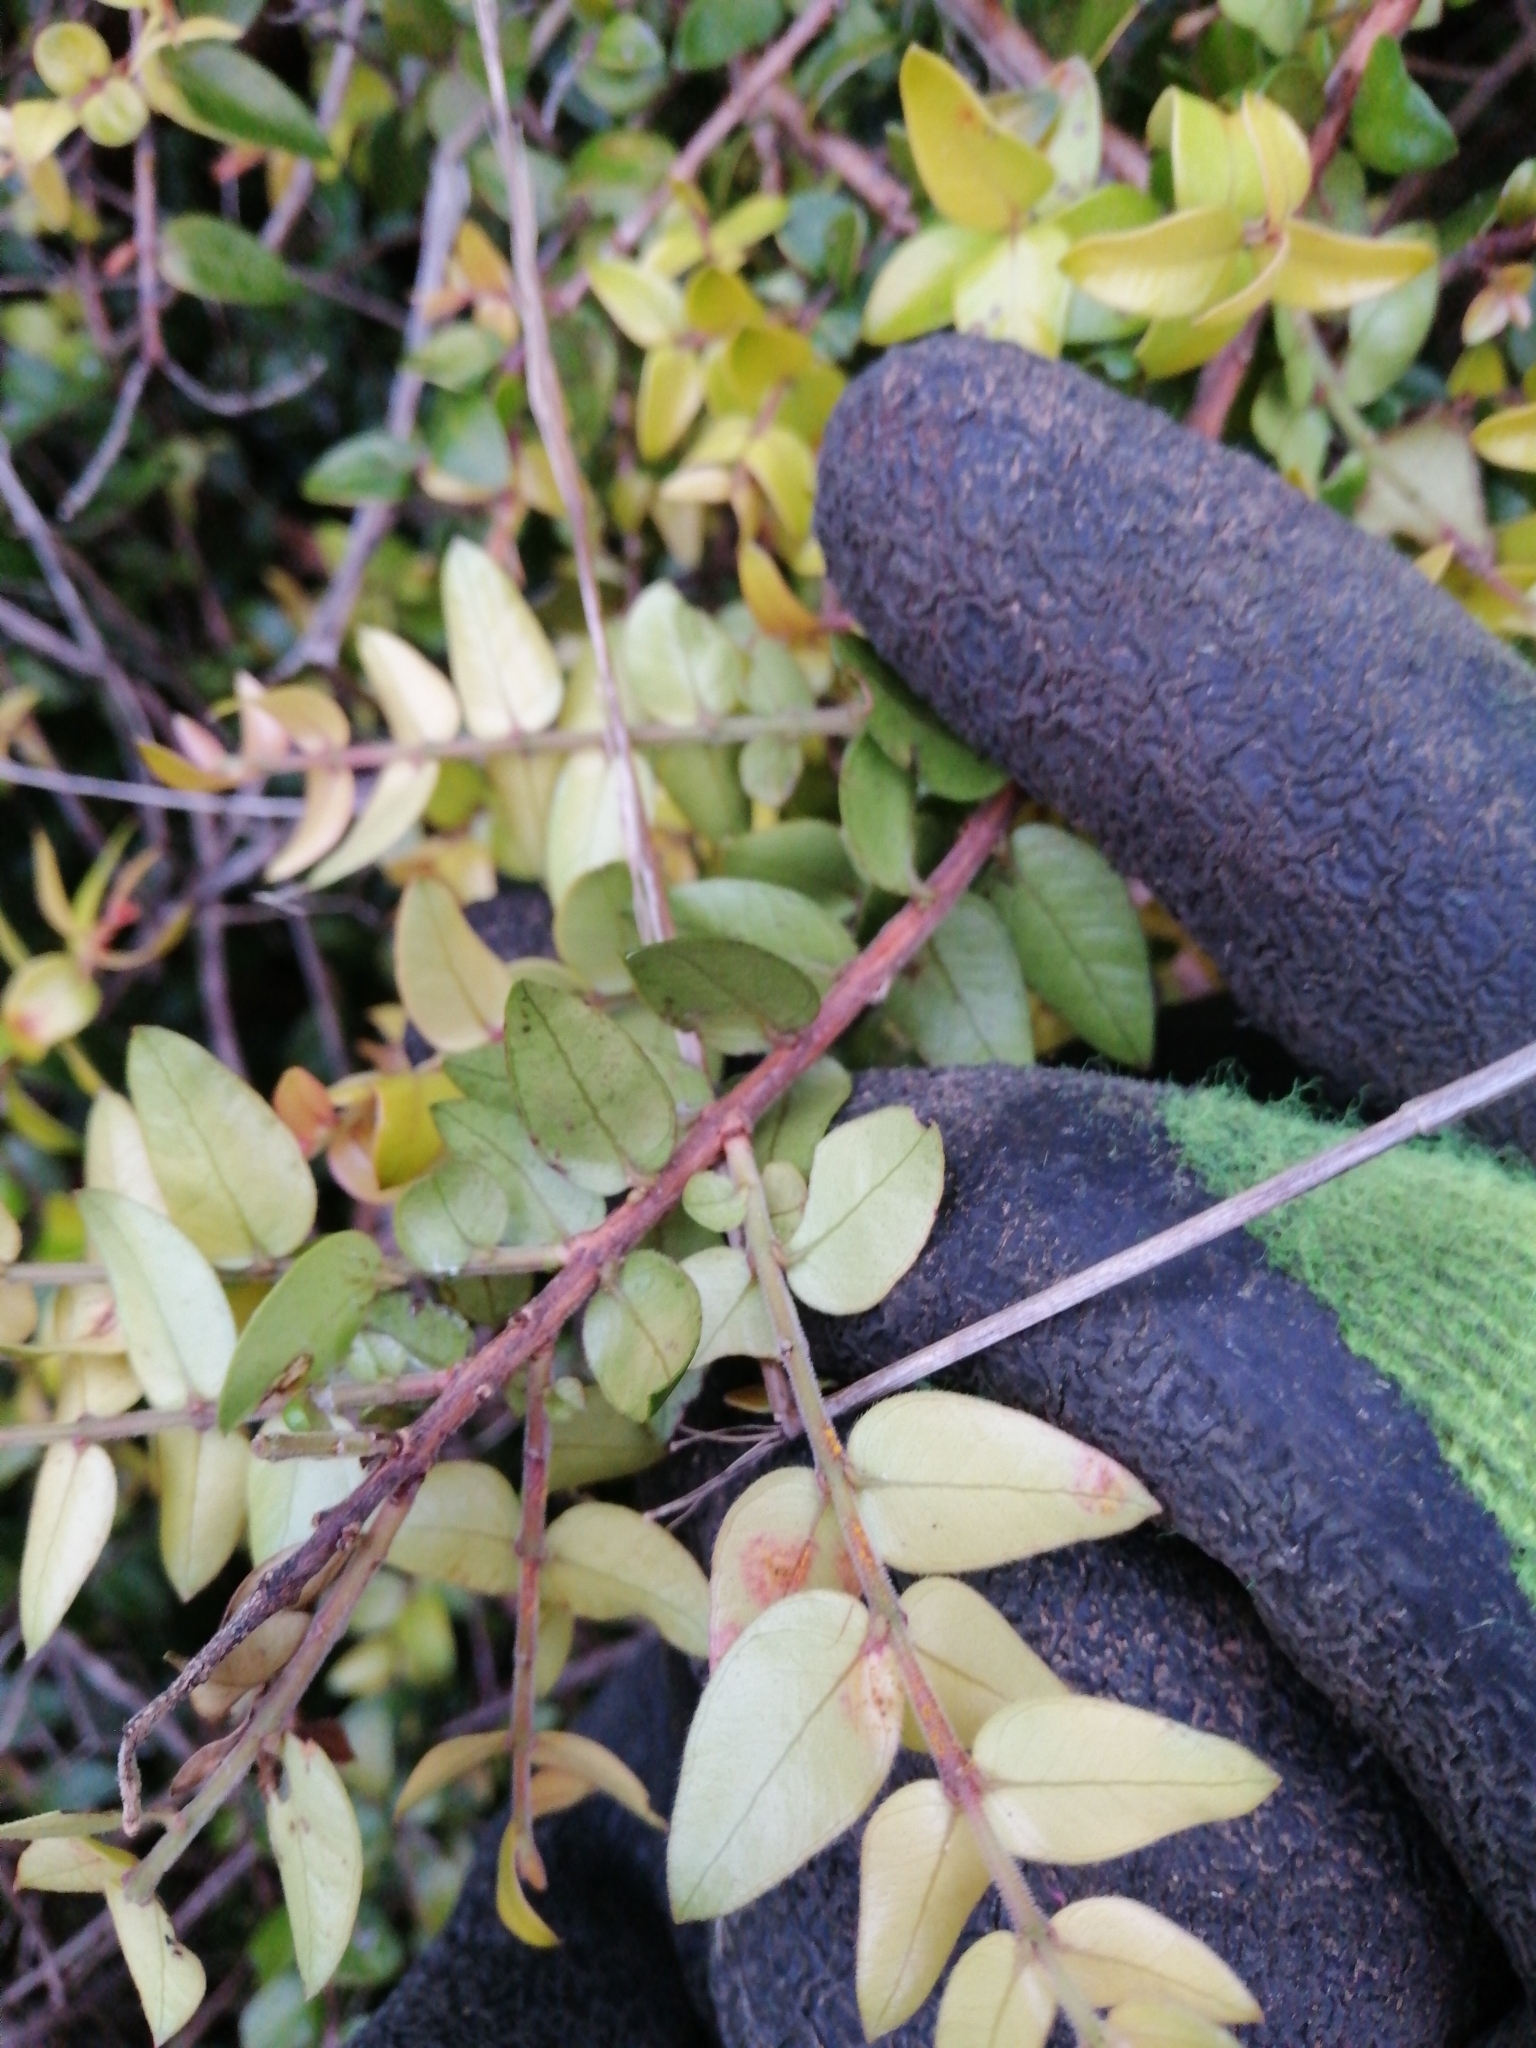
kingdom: Plantae
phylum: Tracheophyta
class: Magnoliopsida
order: Myrtales
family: Myrtaceae
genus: Metrosideros
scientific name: Metrosideros diffusa
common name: Small ratavine
